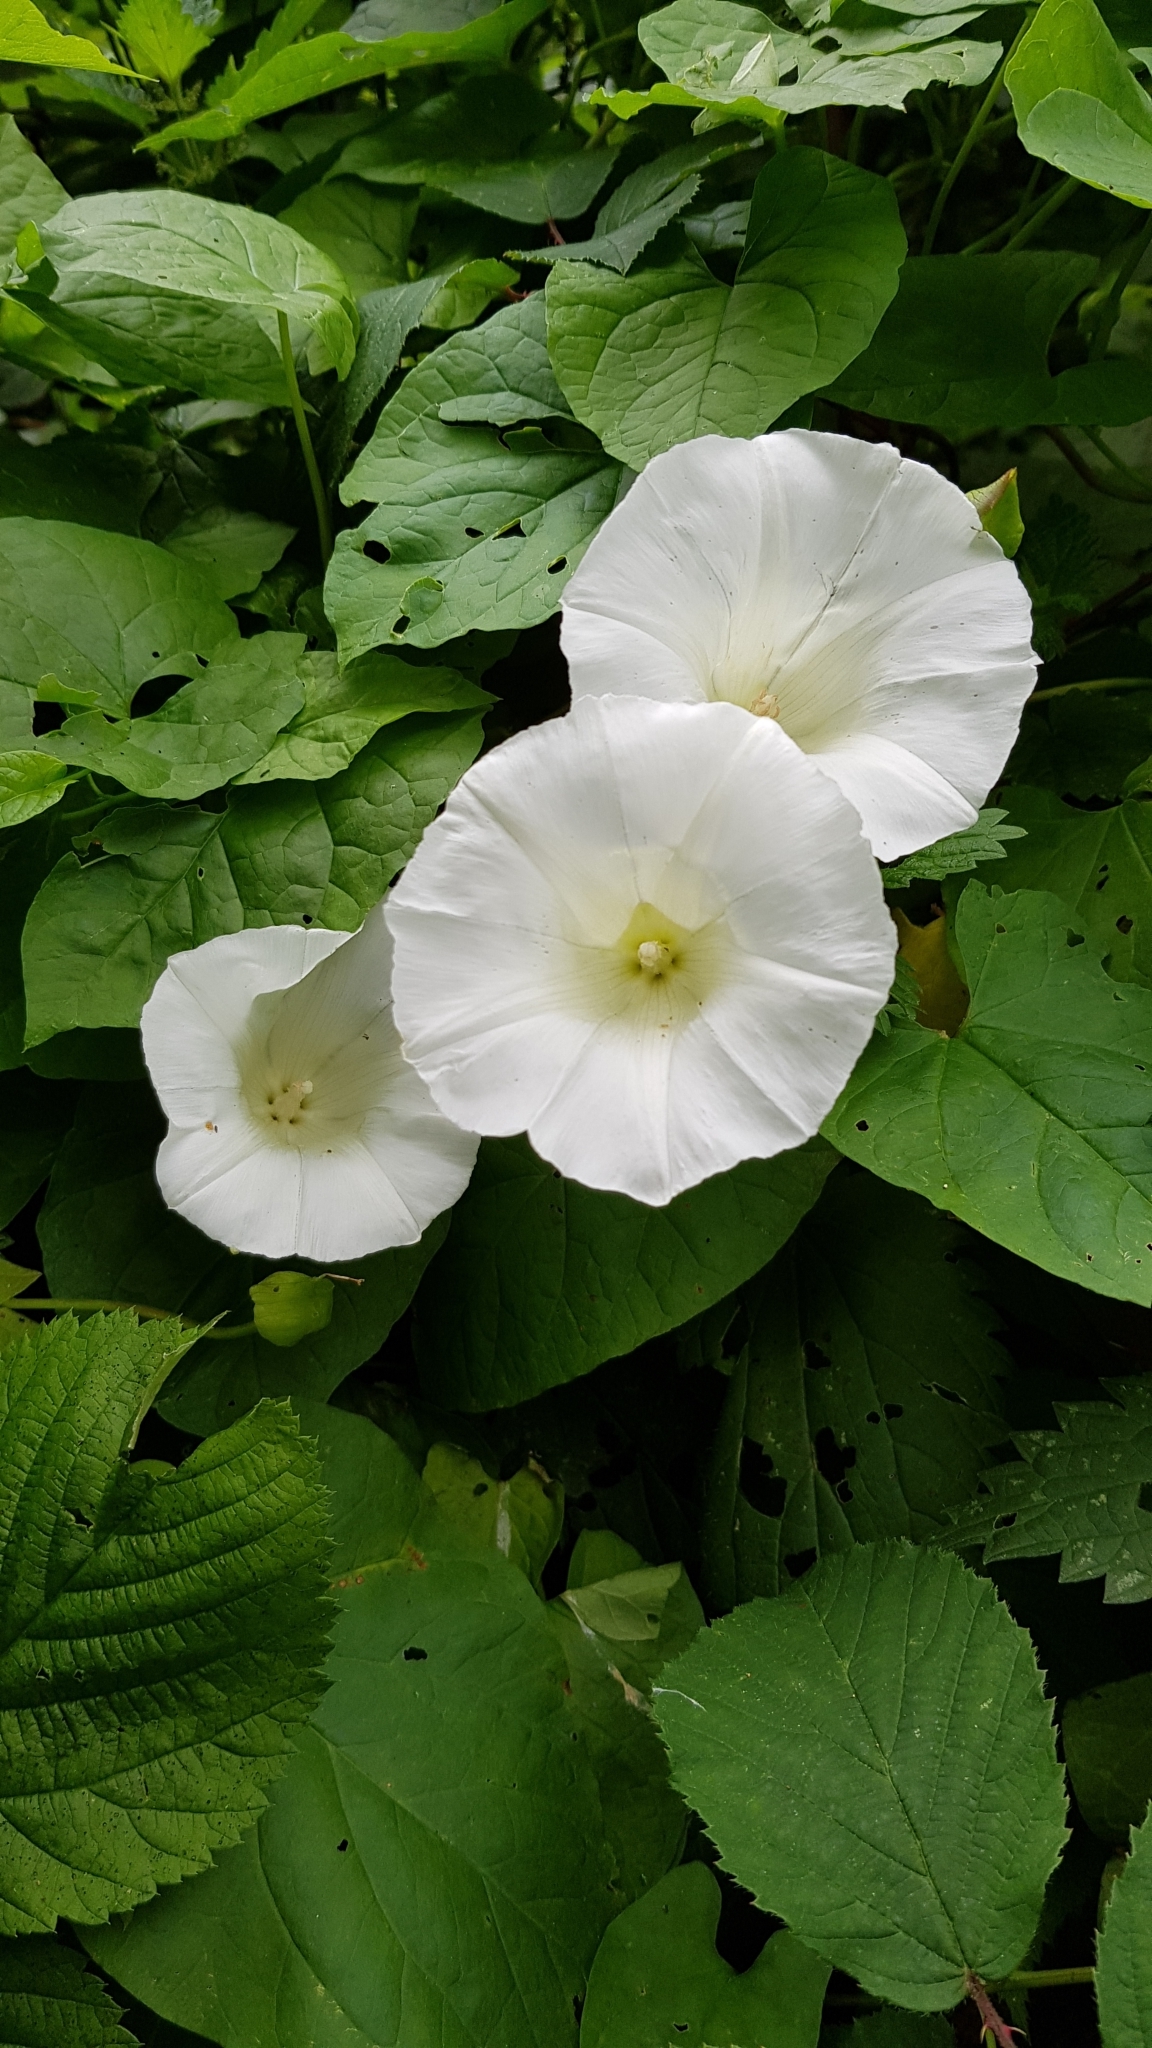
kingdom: Plantae
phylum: Tracheophyta
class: Magnoliopsida
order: Solanales
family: Convolvulaceae
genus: Calystegia
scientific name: Calystegia silvatica
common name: Large bindweed
